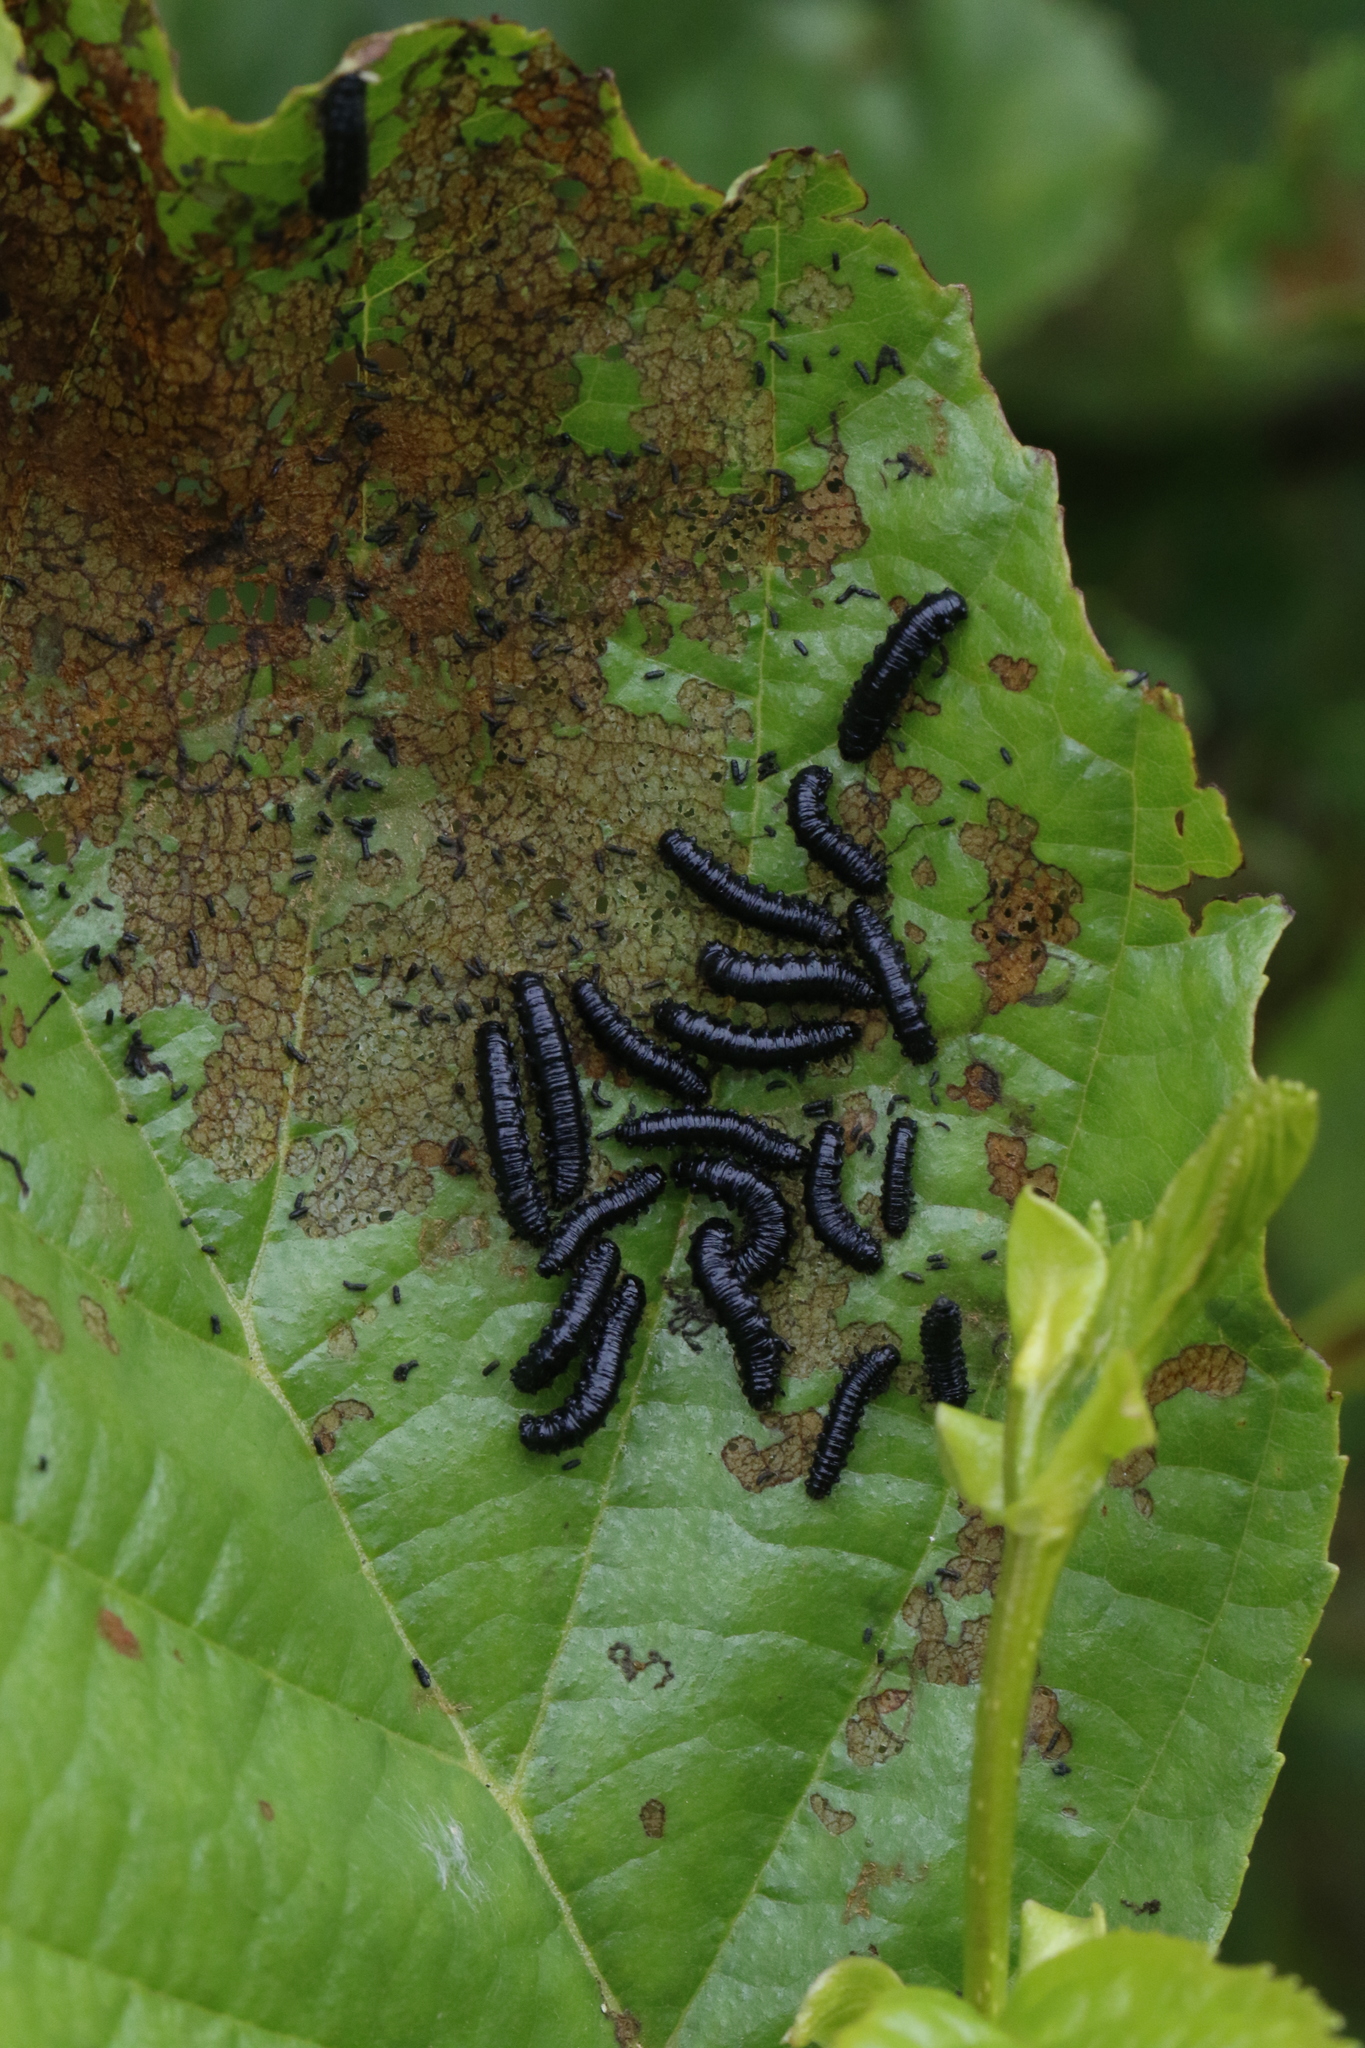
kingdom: Animalia
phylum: Arthropoda
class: Insecta
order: Coleoptera
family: Chrysomelidae
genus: Agelastica
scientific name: Agelastica alni
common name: Alder leaf beetle
